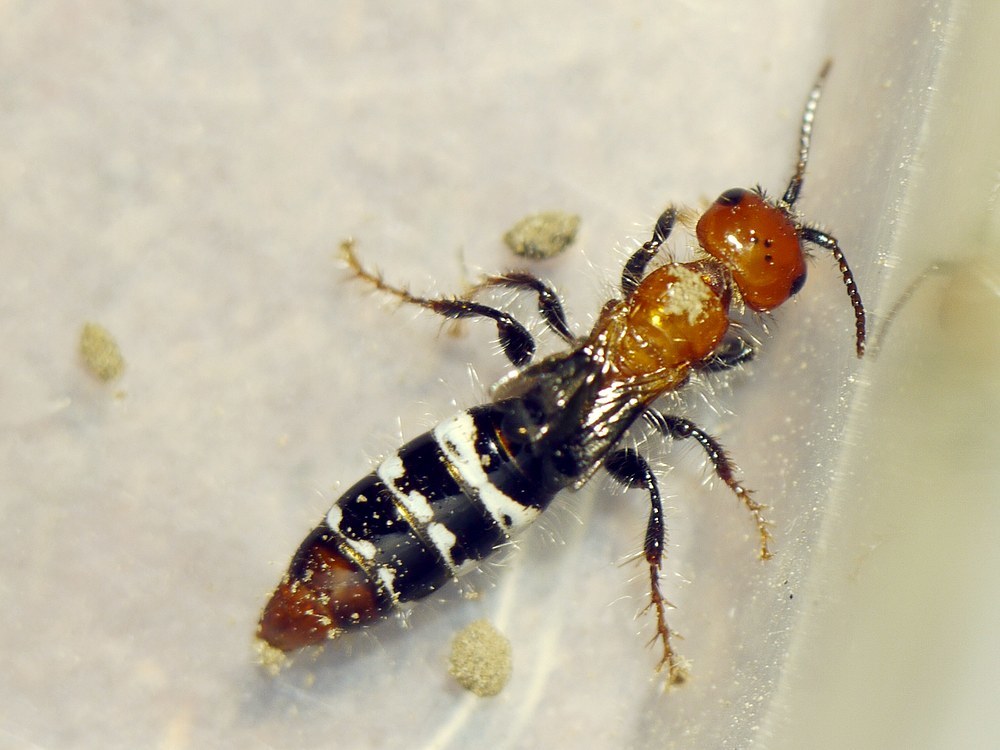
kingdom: Animalia
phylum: Arthropoda
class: Insecta
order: Hymenoptera
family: Tiphiidae
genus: Meria
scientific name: Meria geniculata
